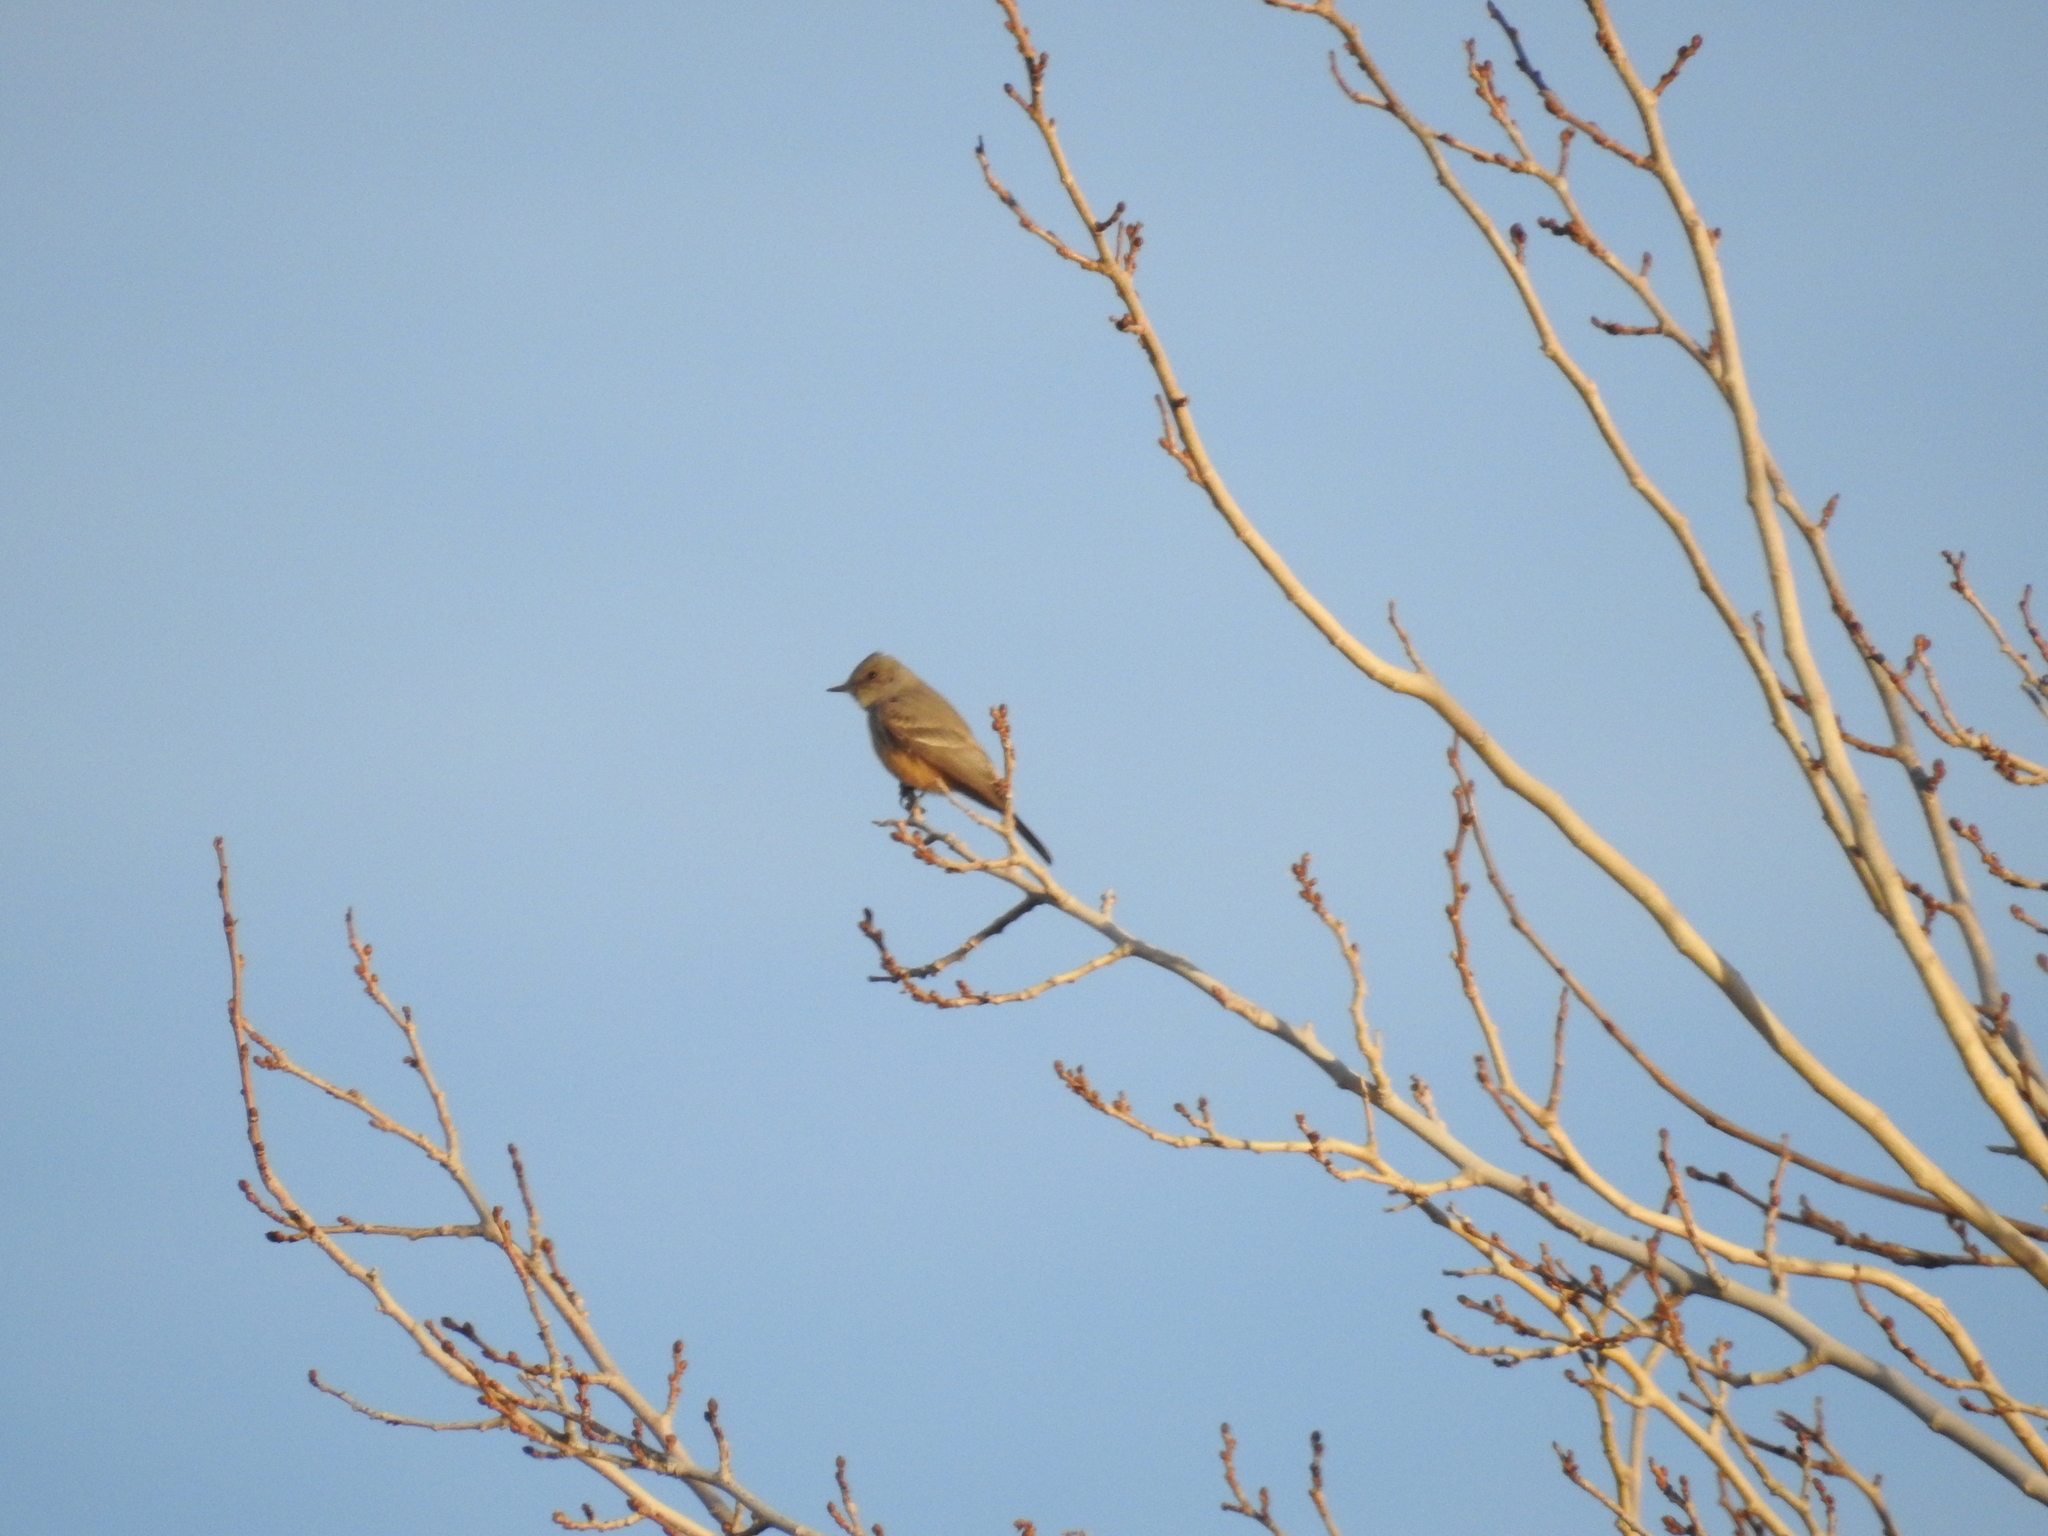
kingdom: Animalia
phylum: Chordata
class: Aves
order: Passeriformes
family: Tyrannidae
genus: Sayornis
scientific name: Sayornis saya
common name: Say's phoebe
